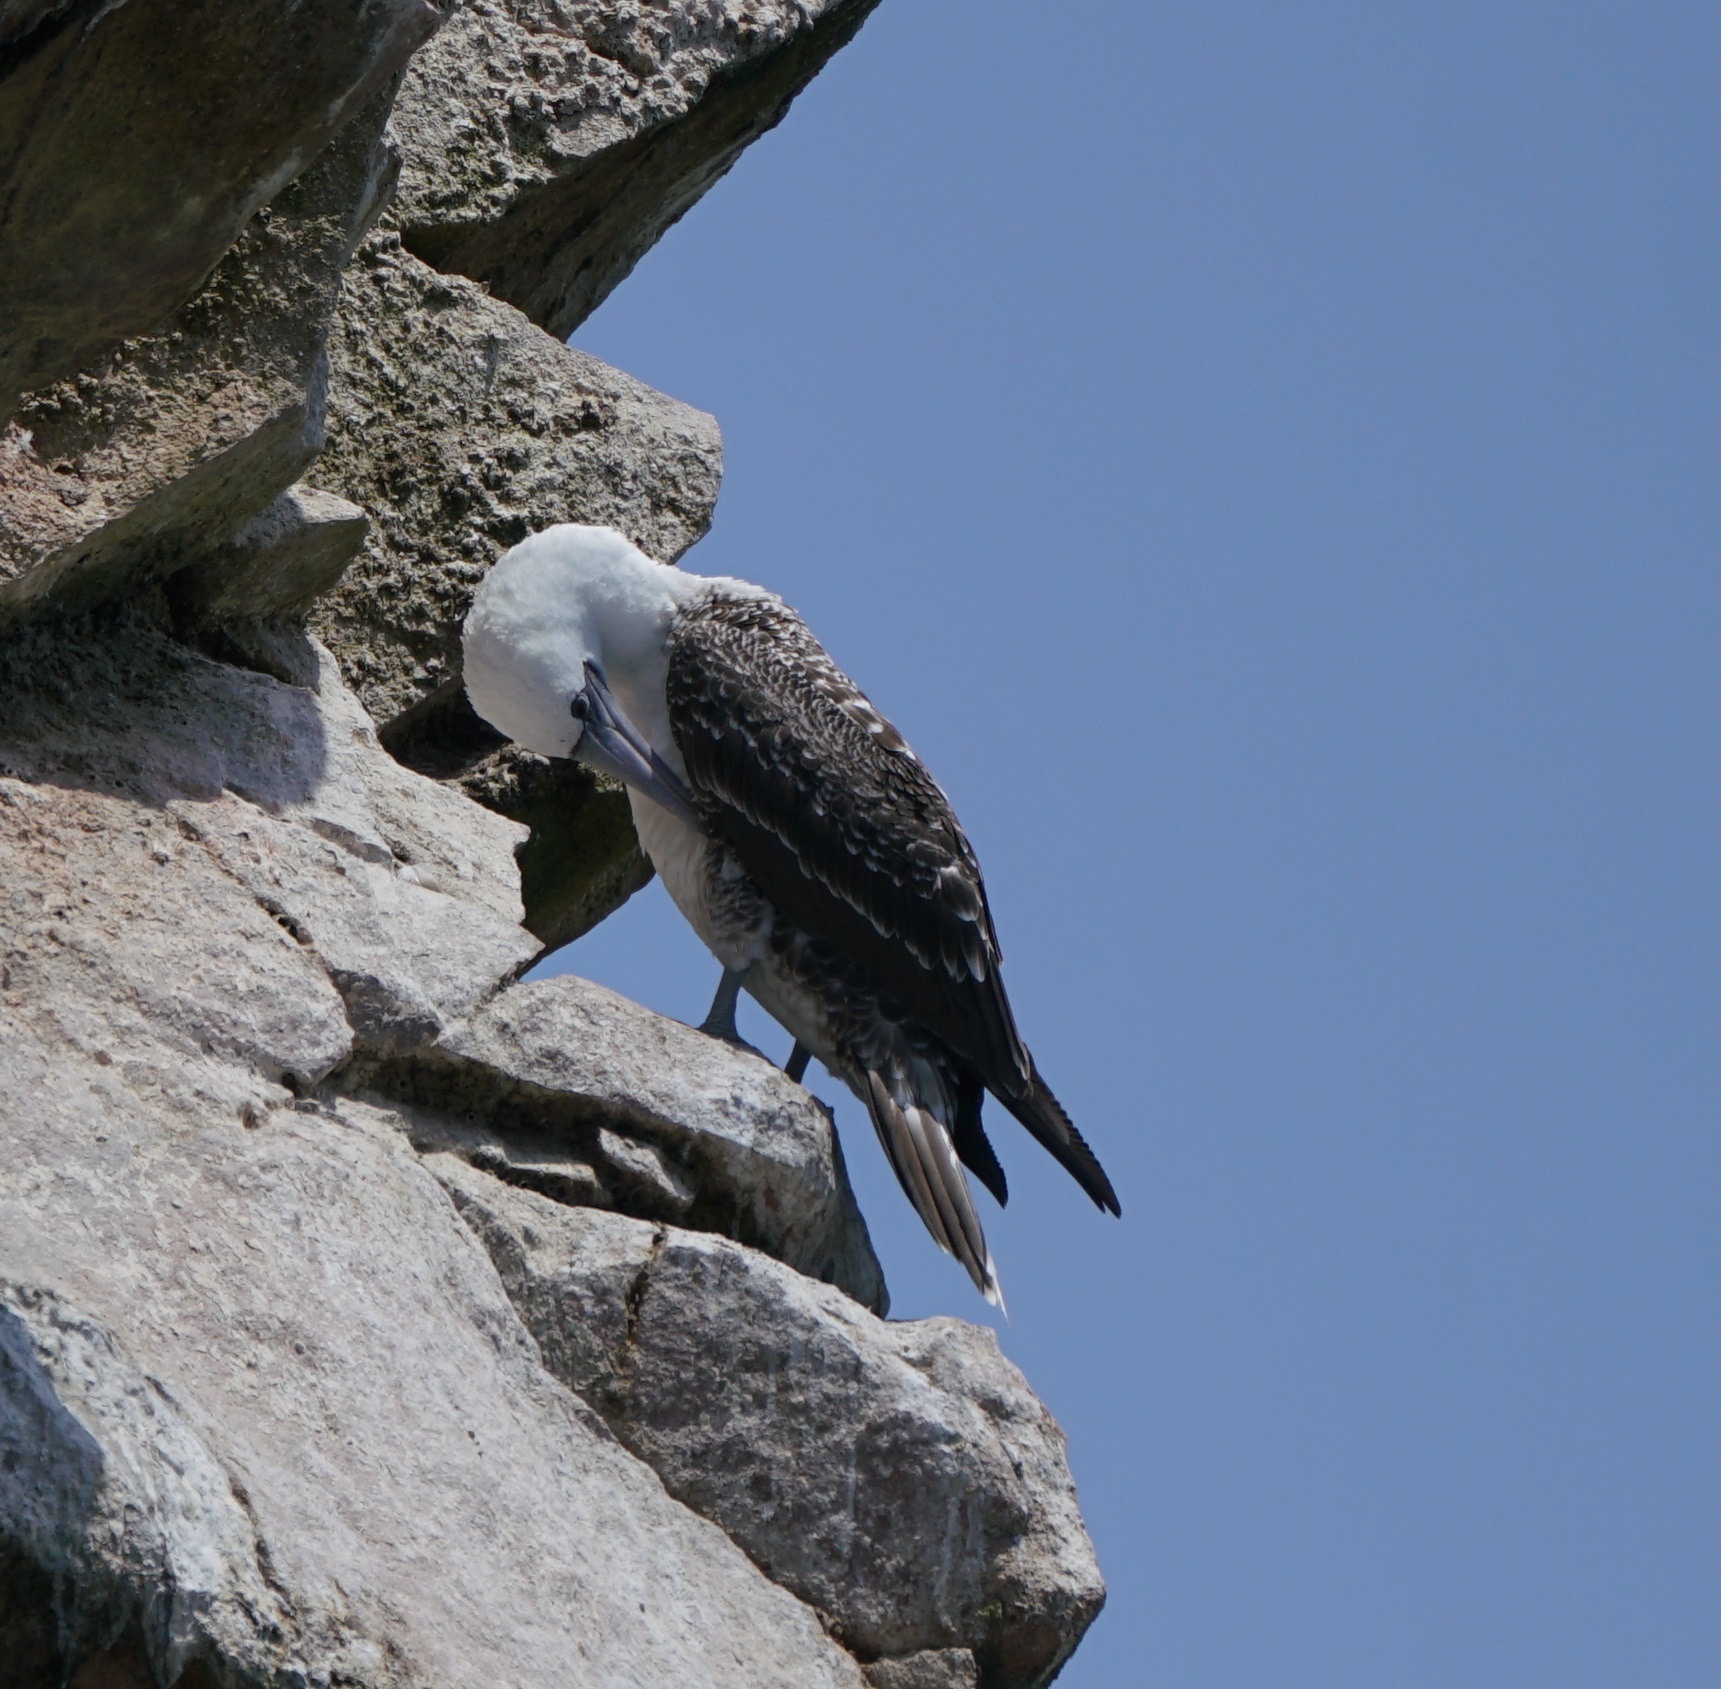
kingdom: Animalia
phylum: Chordata
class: Aves
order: Suliformes
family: Sulidae
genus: Sula
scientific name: Sula variegata
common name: Peruvian booby
